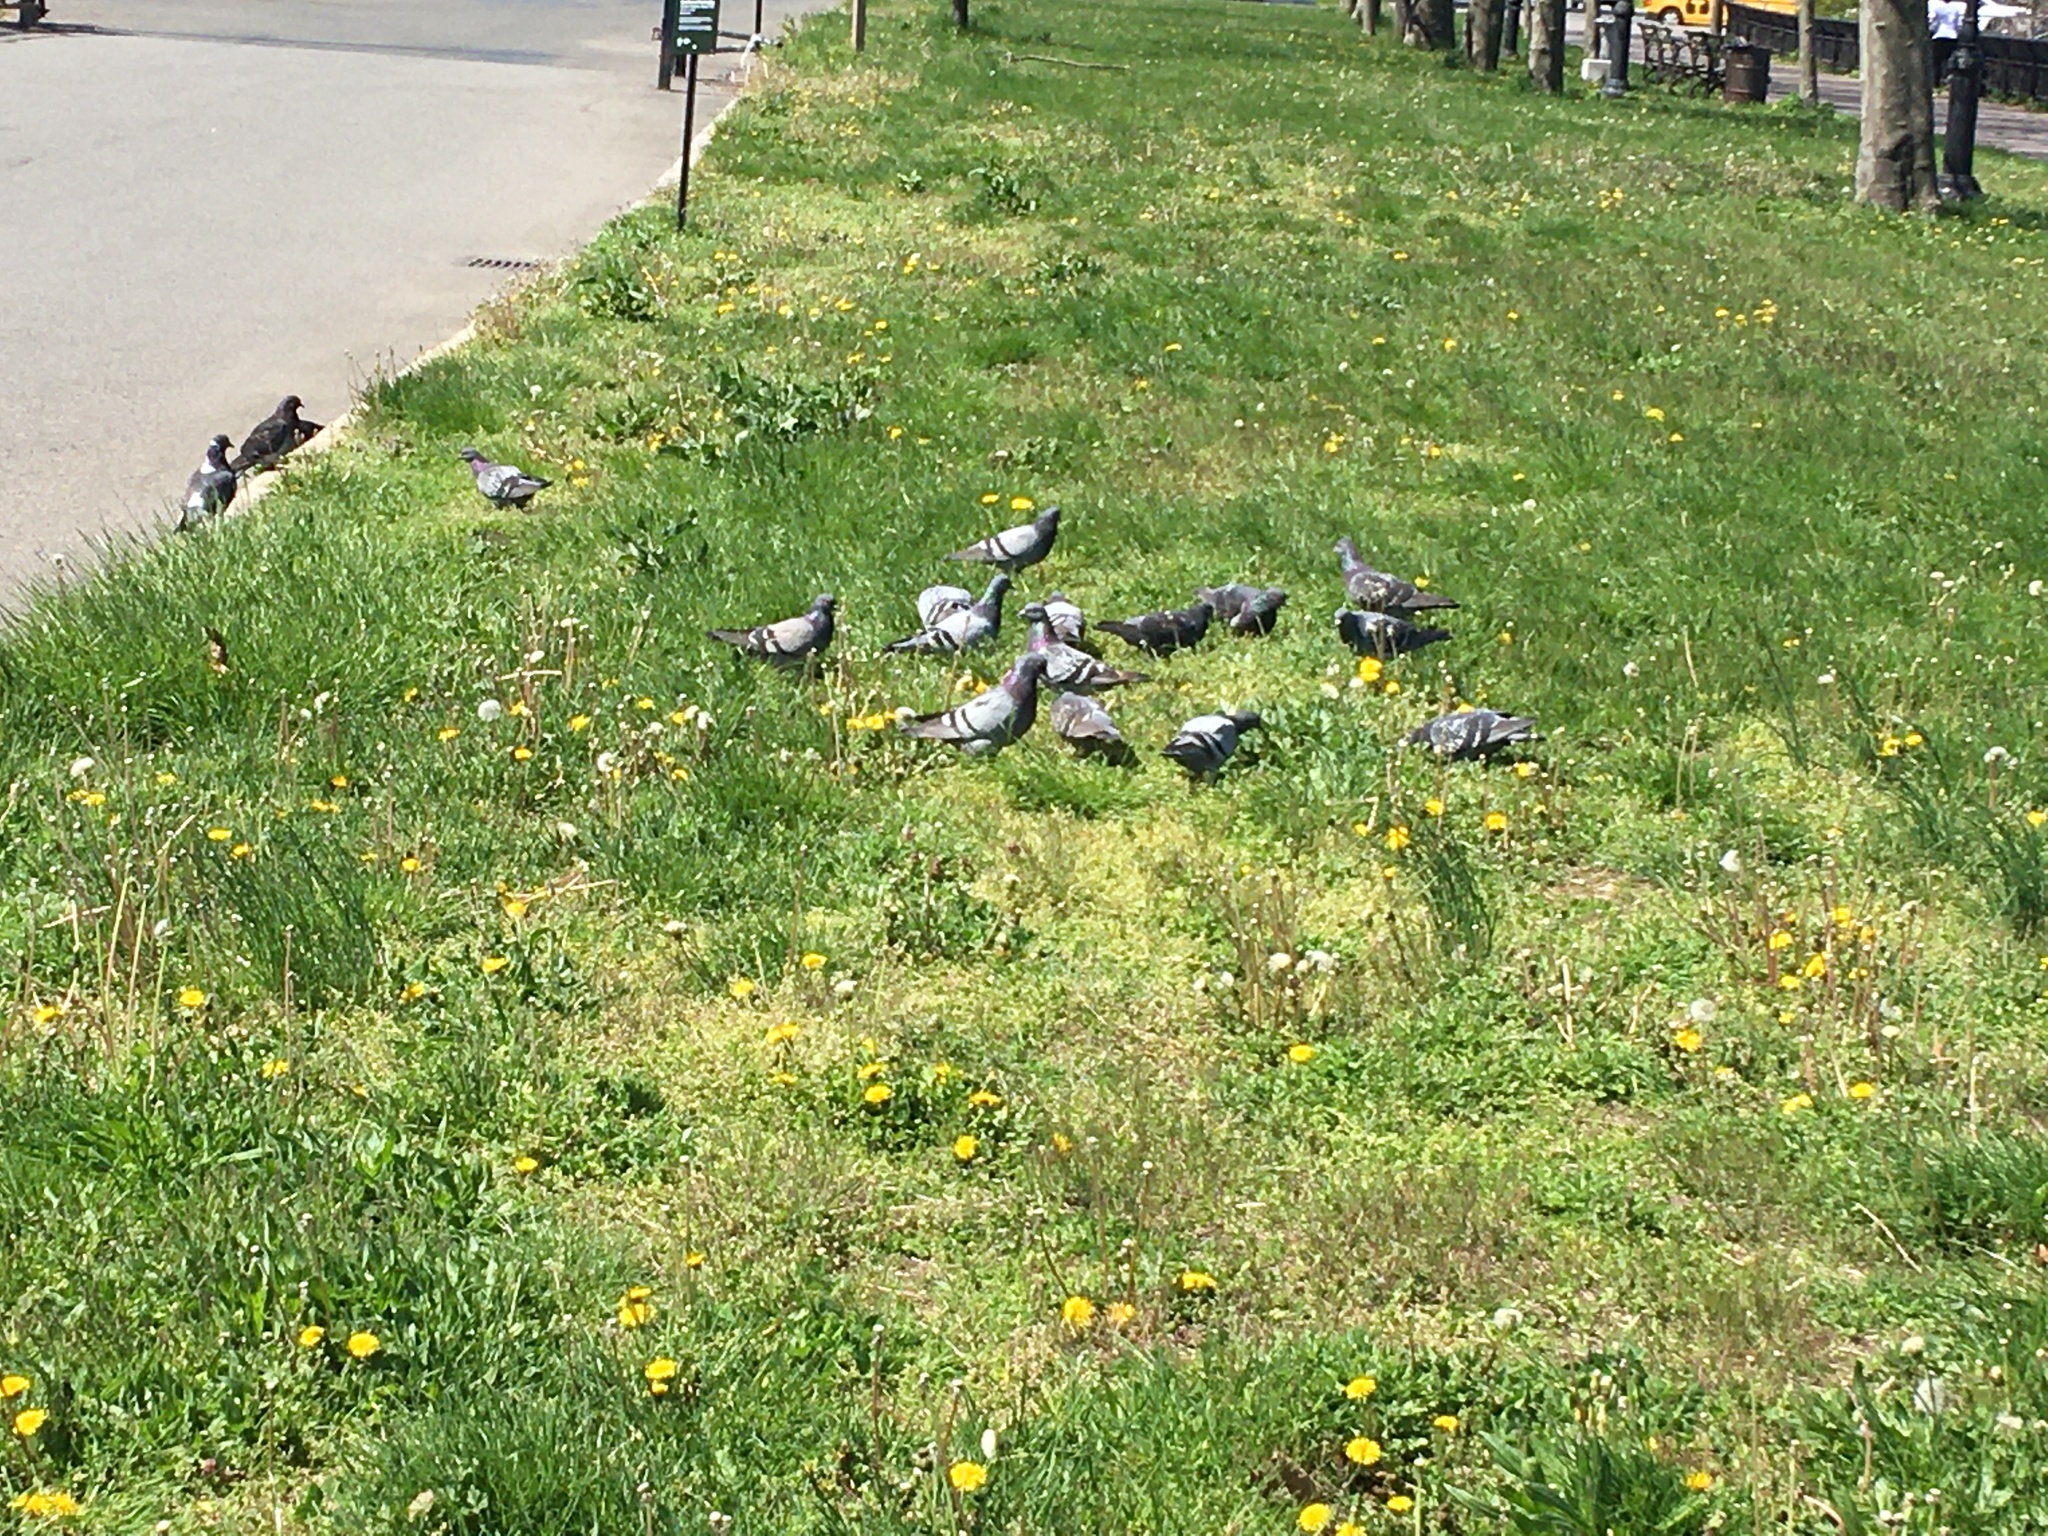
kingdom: Animalia
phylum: Chordata
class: Aves
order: Columbiformes
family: Columbidae
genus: Columba
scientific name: Columba livia
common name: Rock pigeon
